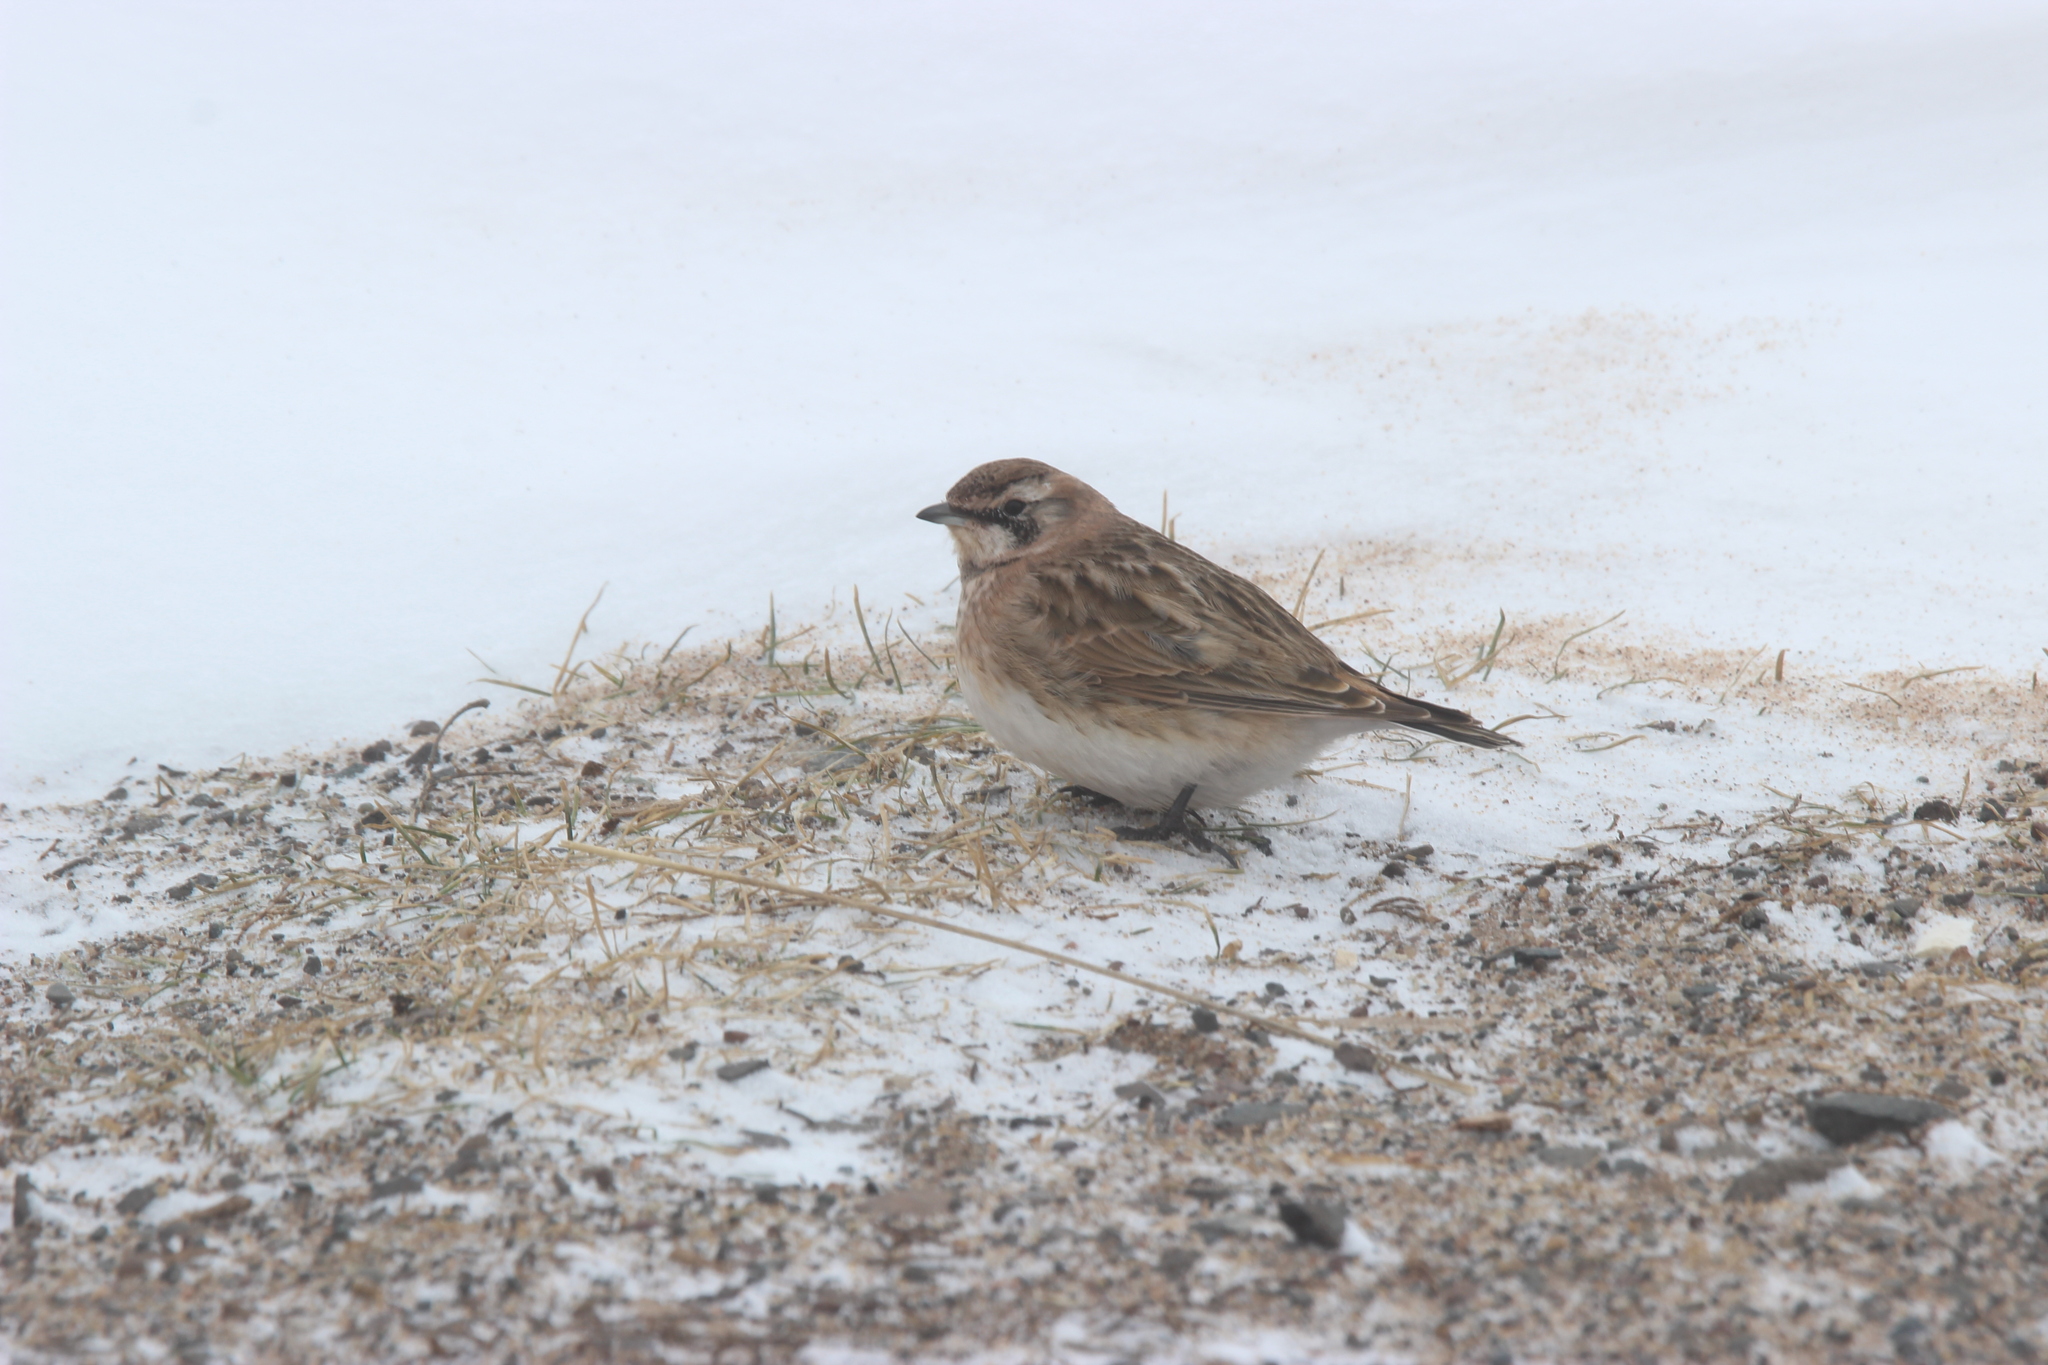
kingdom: Animalia
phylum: Chordata
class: Aves
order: Passeriformes
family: Alaudidae
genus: Eremophila
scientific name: Eremophila alpestris
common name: Horned lark
